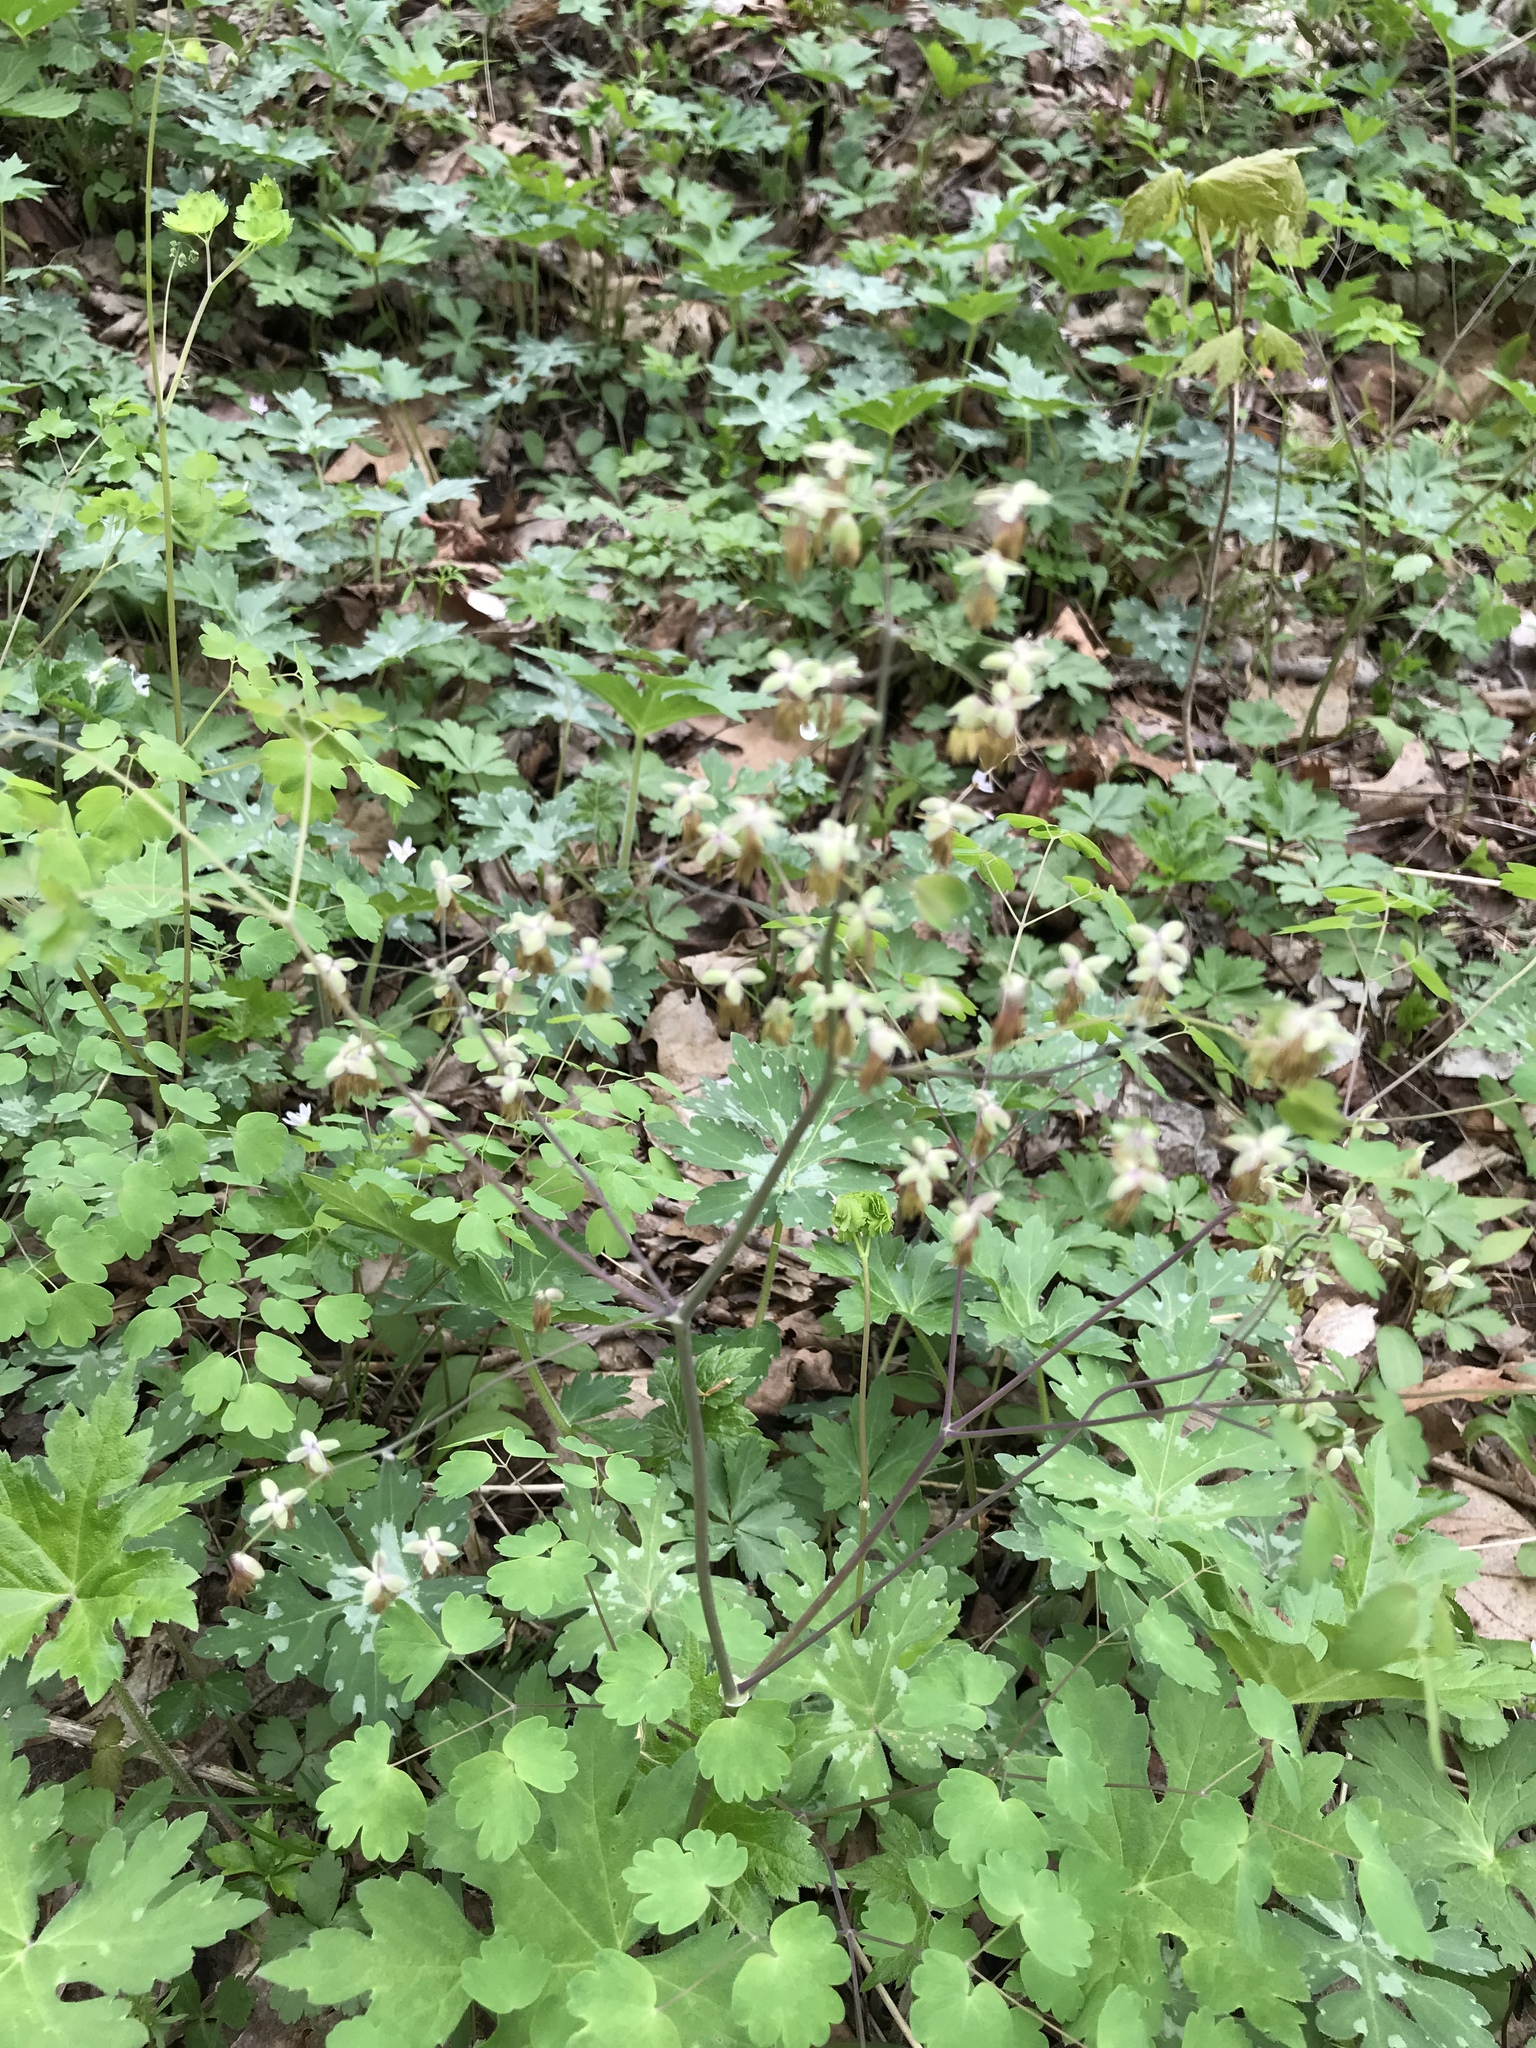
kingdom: Plantae
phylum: Tracheophyta
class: Magnoliopsida
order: Ranunculales
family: Ranunculaceae
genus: Thalictrum
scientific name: Thalictrum dioicum
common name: Early meadow-rue
